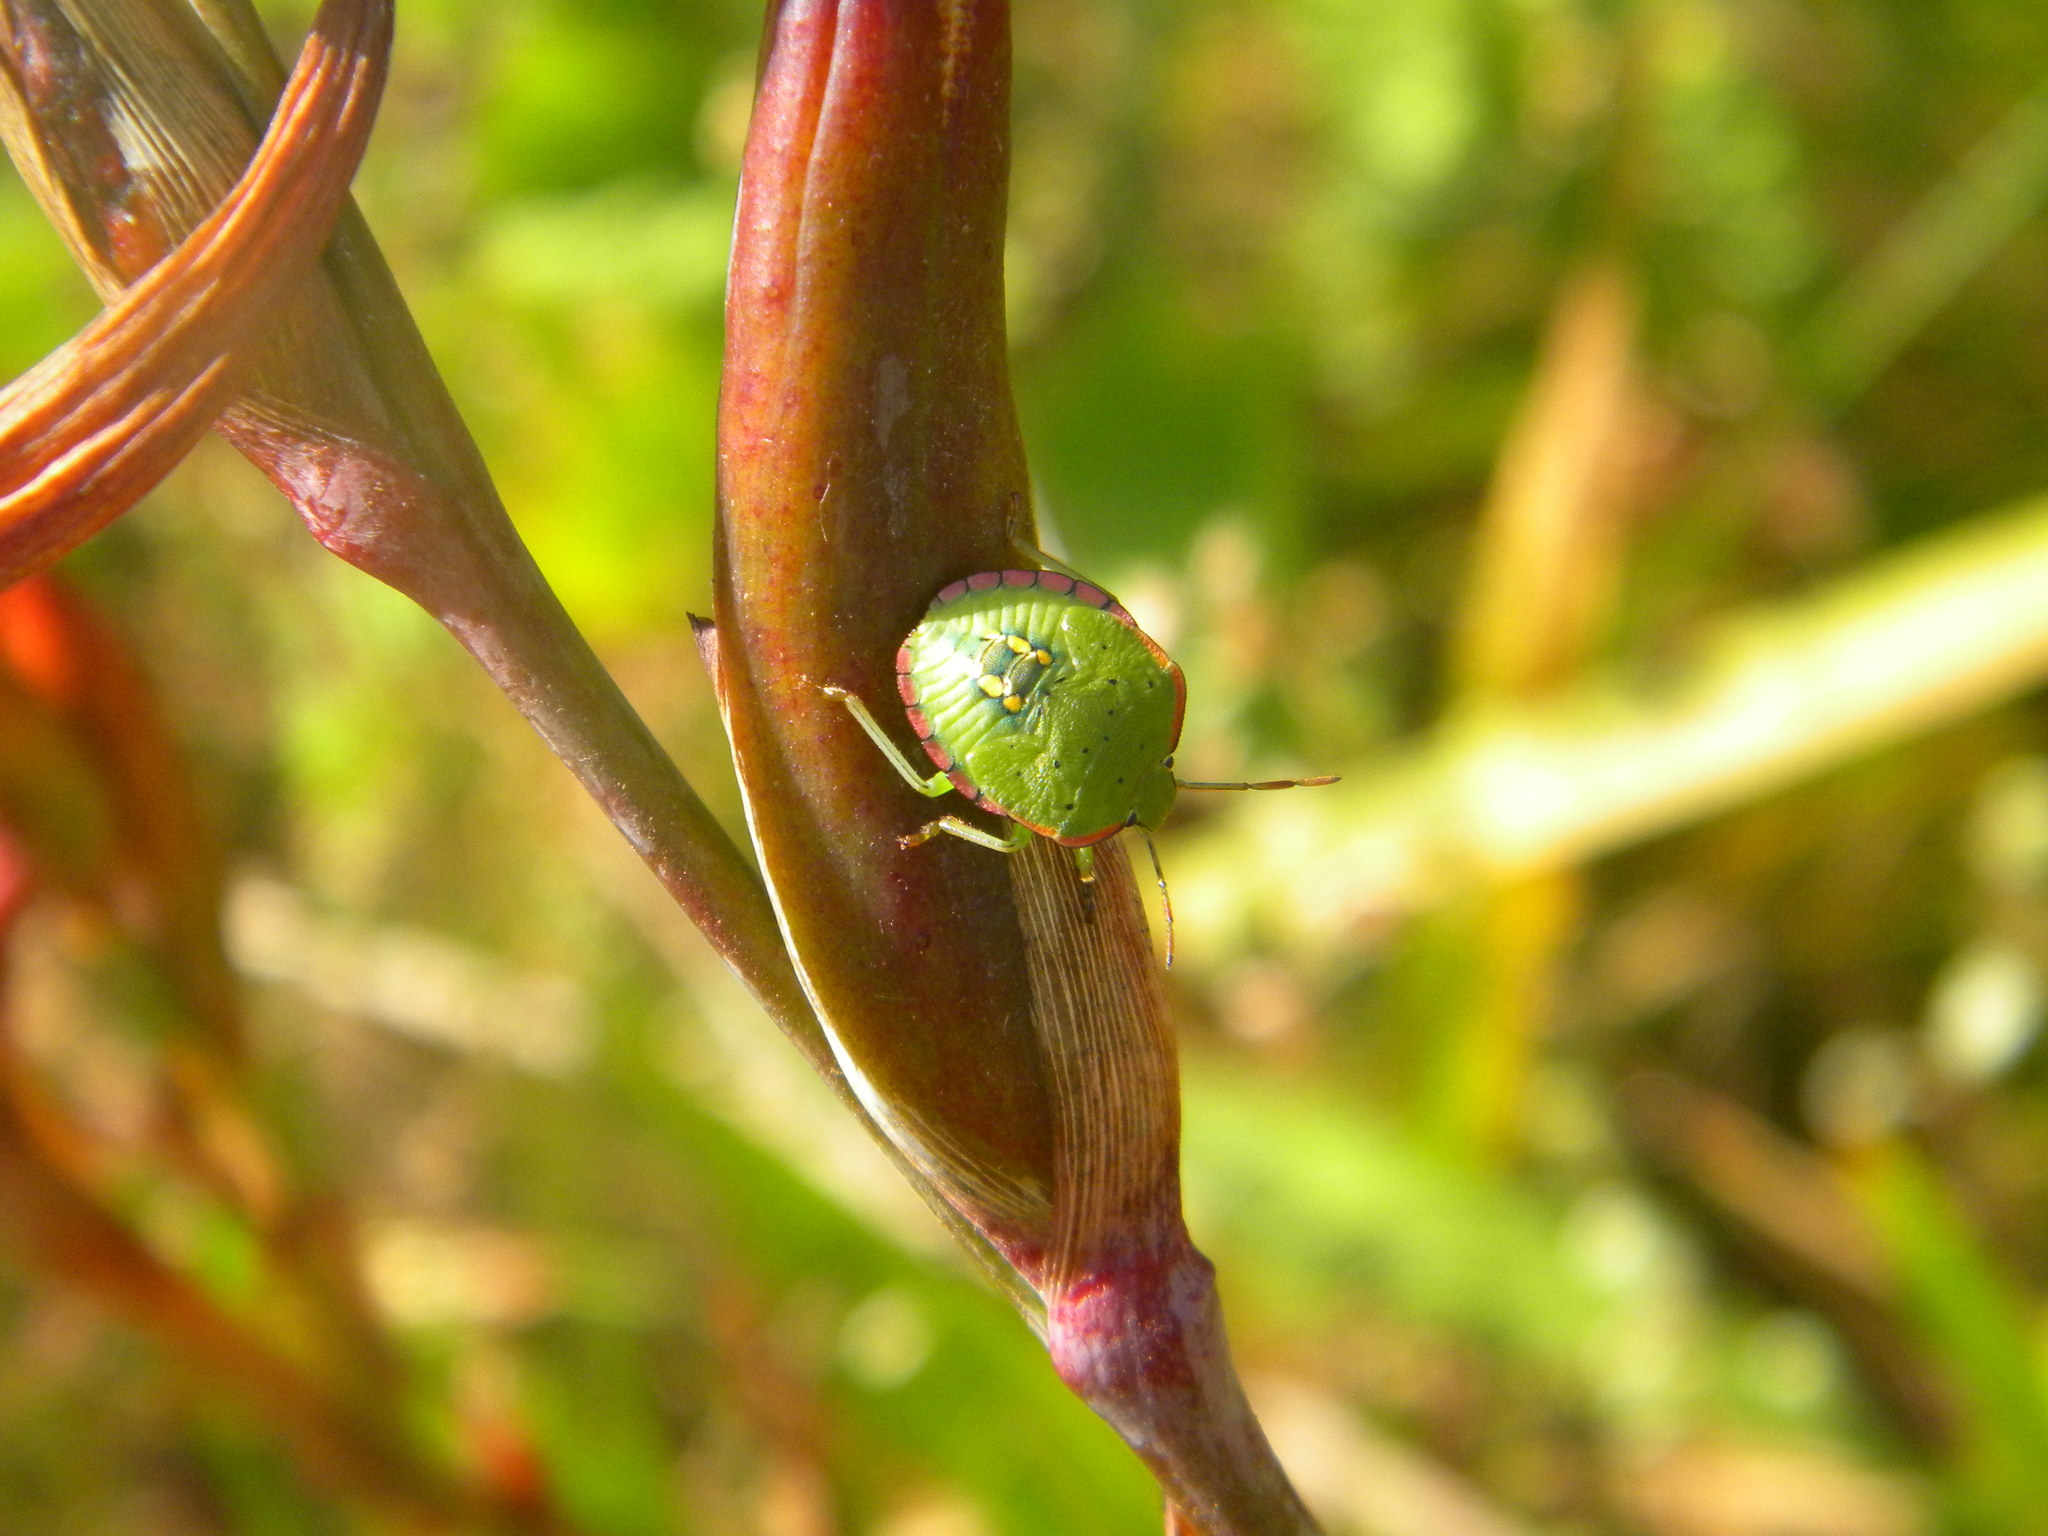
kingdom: Animalia
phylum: Arthropoda
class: Insecta
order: Hemiptera
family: Pentatomidae
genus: Nezara
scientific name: Nezara capicola
